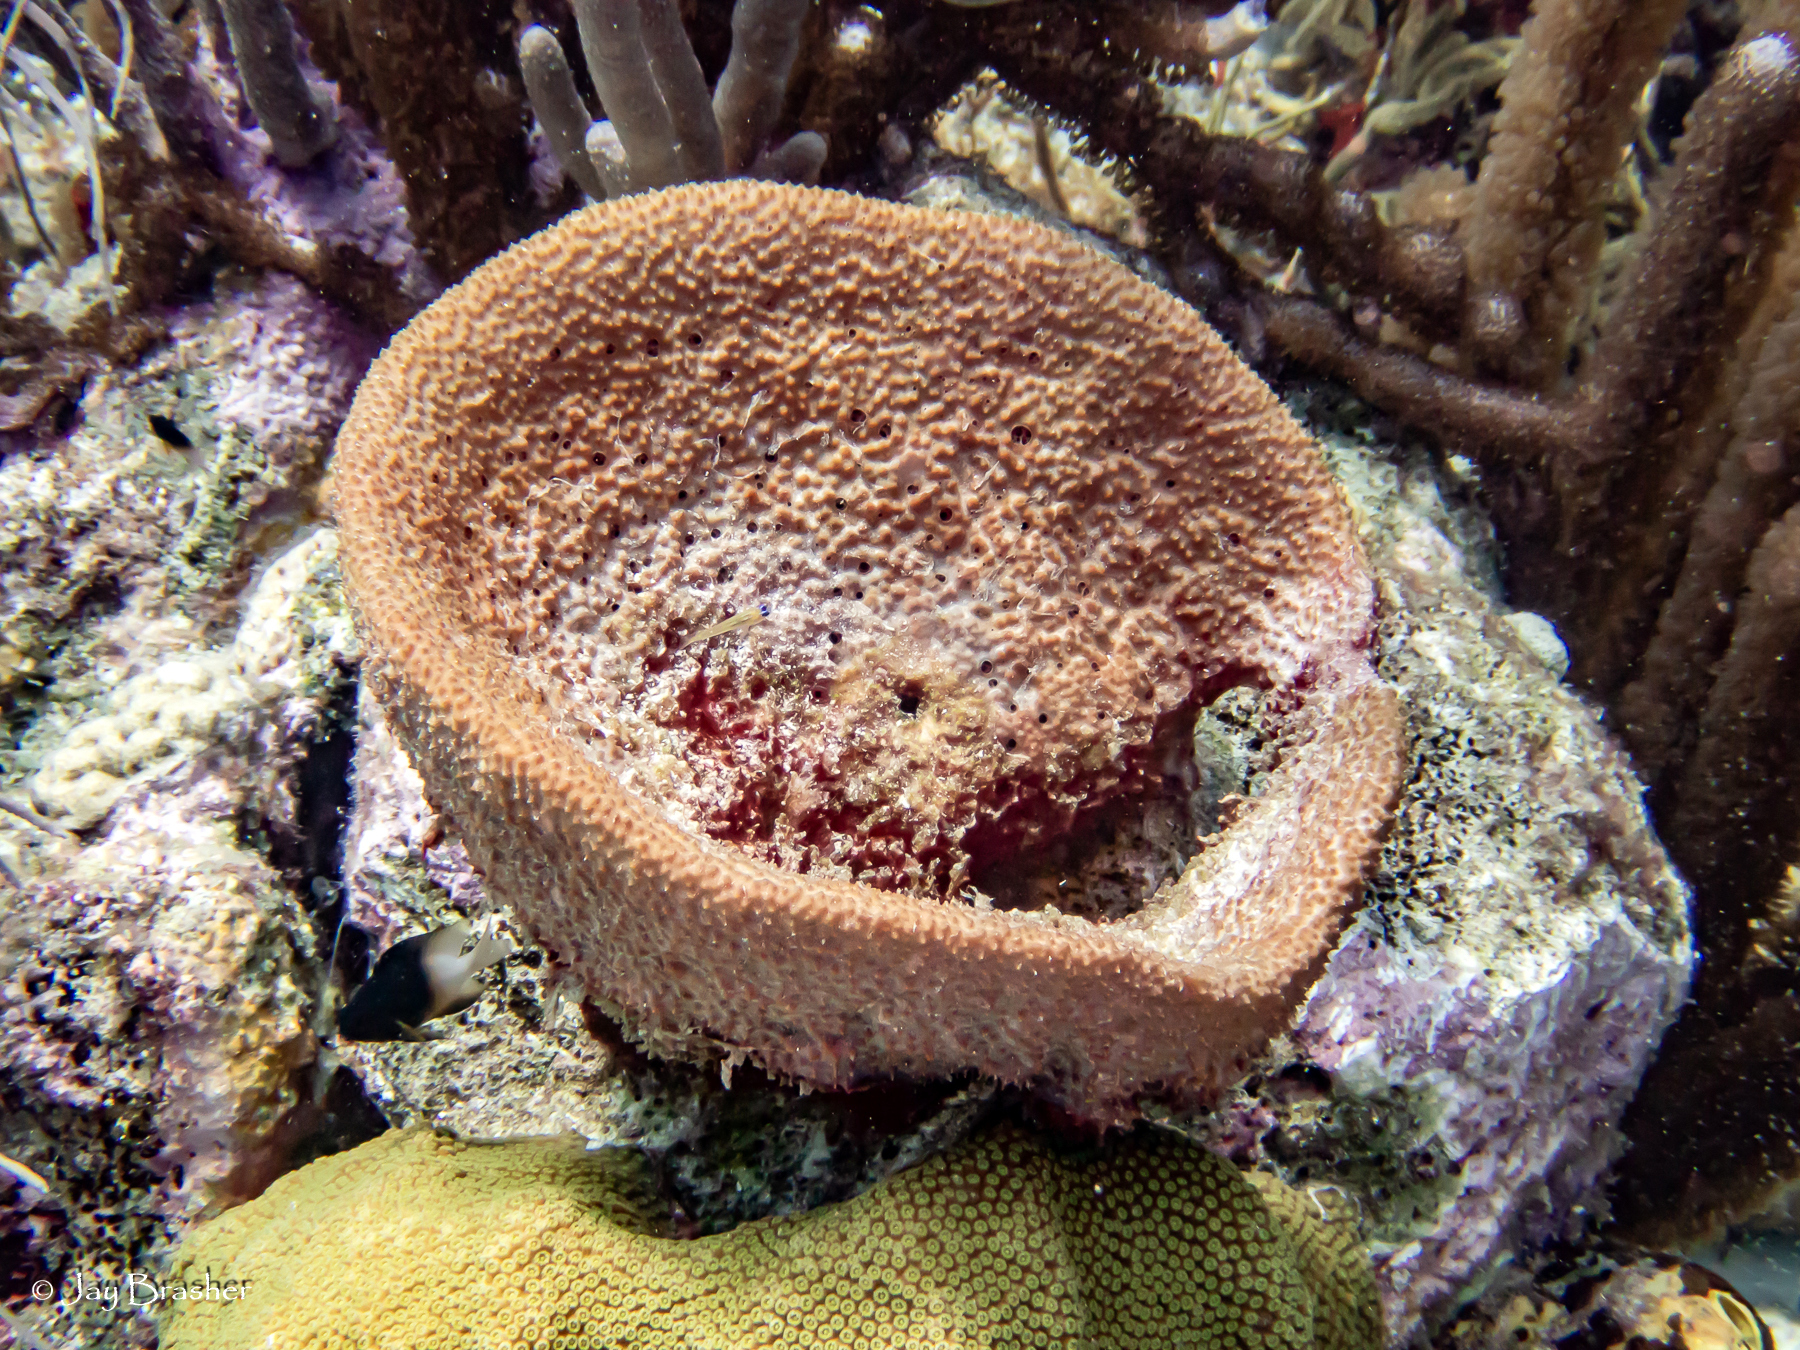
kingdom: Animalia
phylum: Porifera
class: Demospongiae
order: Dictyoceratida
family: Irciniidae
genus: Ircinia
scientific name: Ircinia campana
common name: Vase sponge
